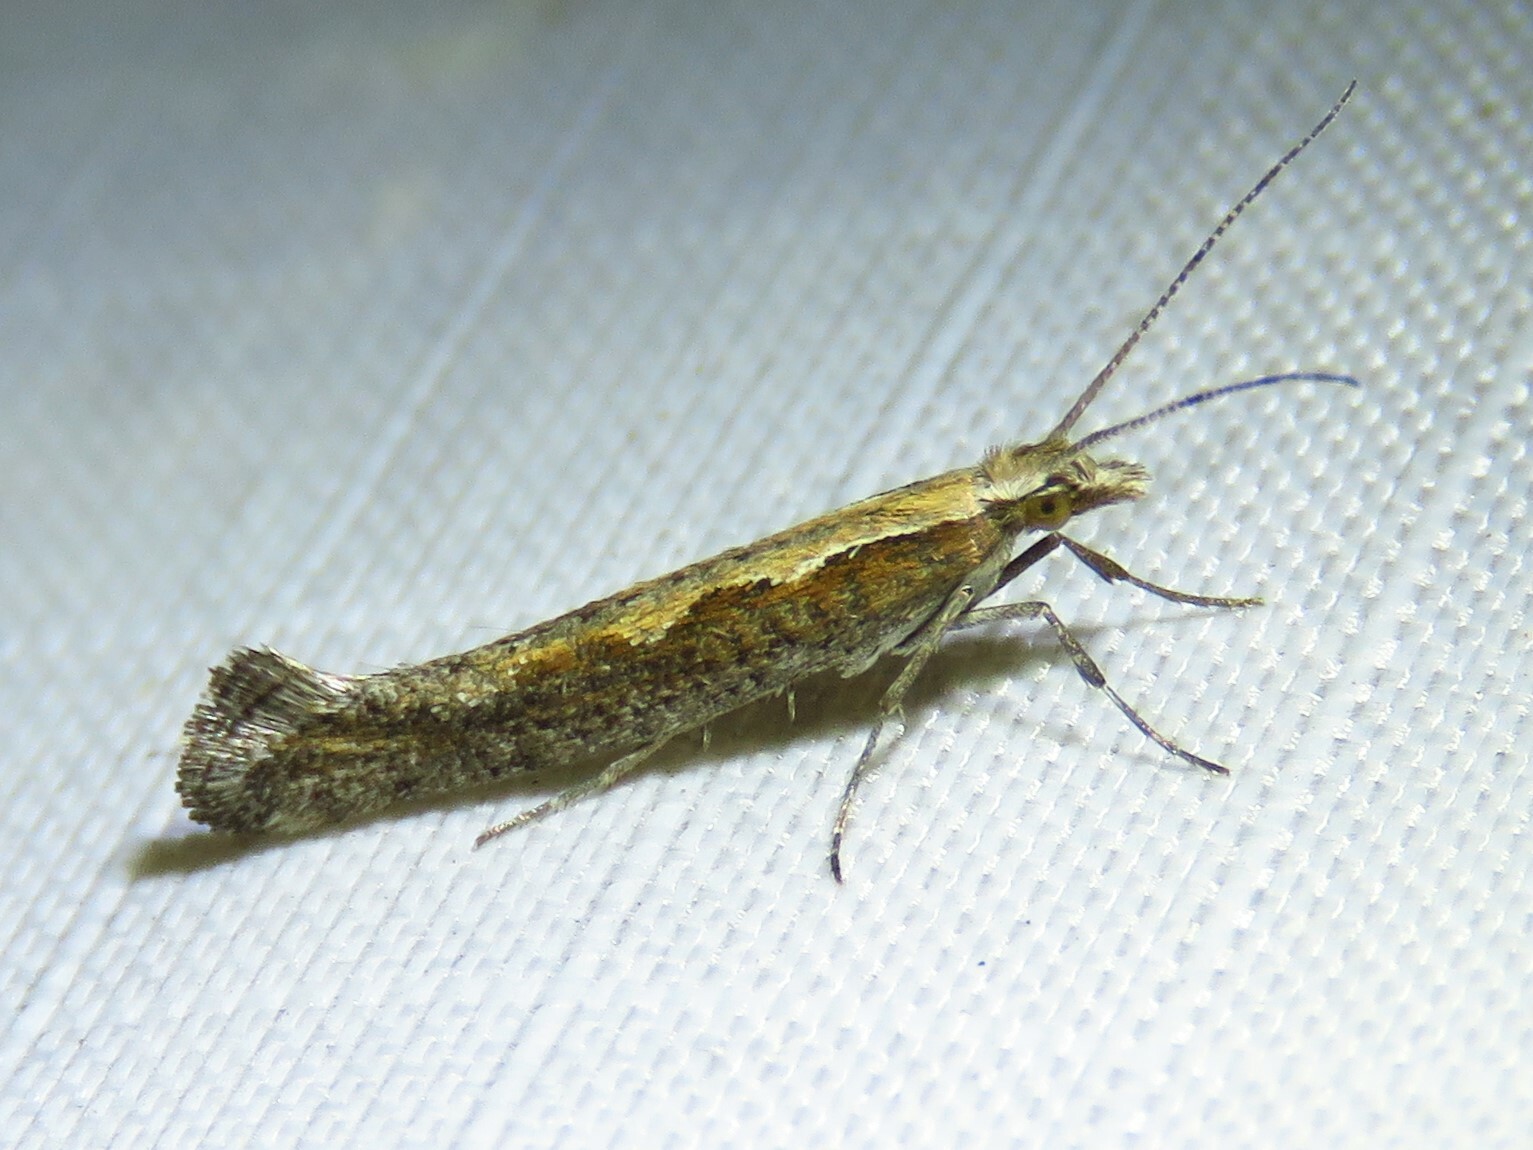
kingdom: Animalia
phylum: Arthropoda
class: Insecta
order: Lepidoptera
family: Plutellidae
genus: Plutella
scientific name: Plutella xylostella
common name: Diamond-back moth
